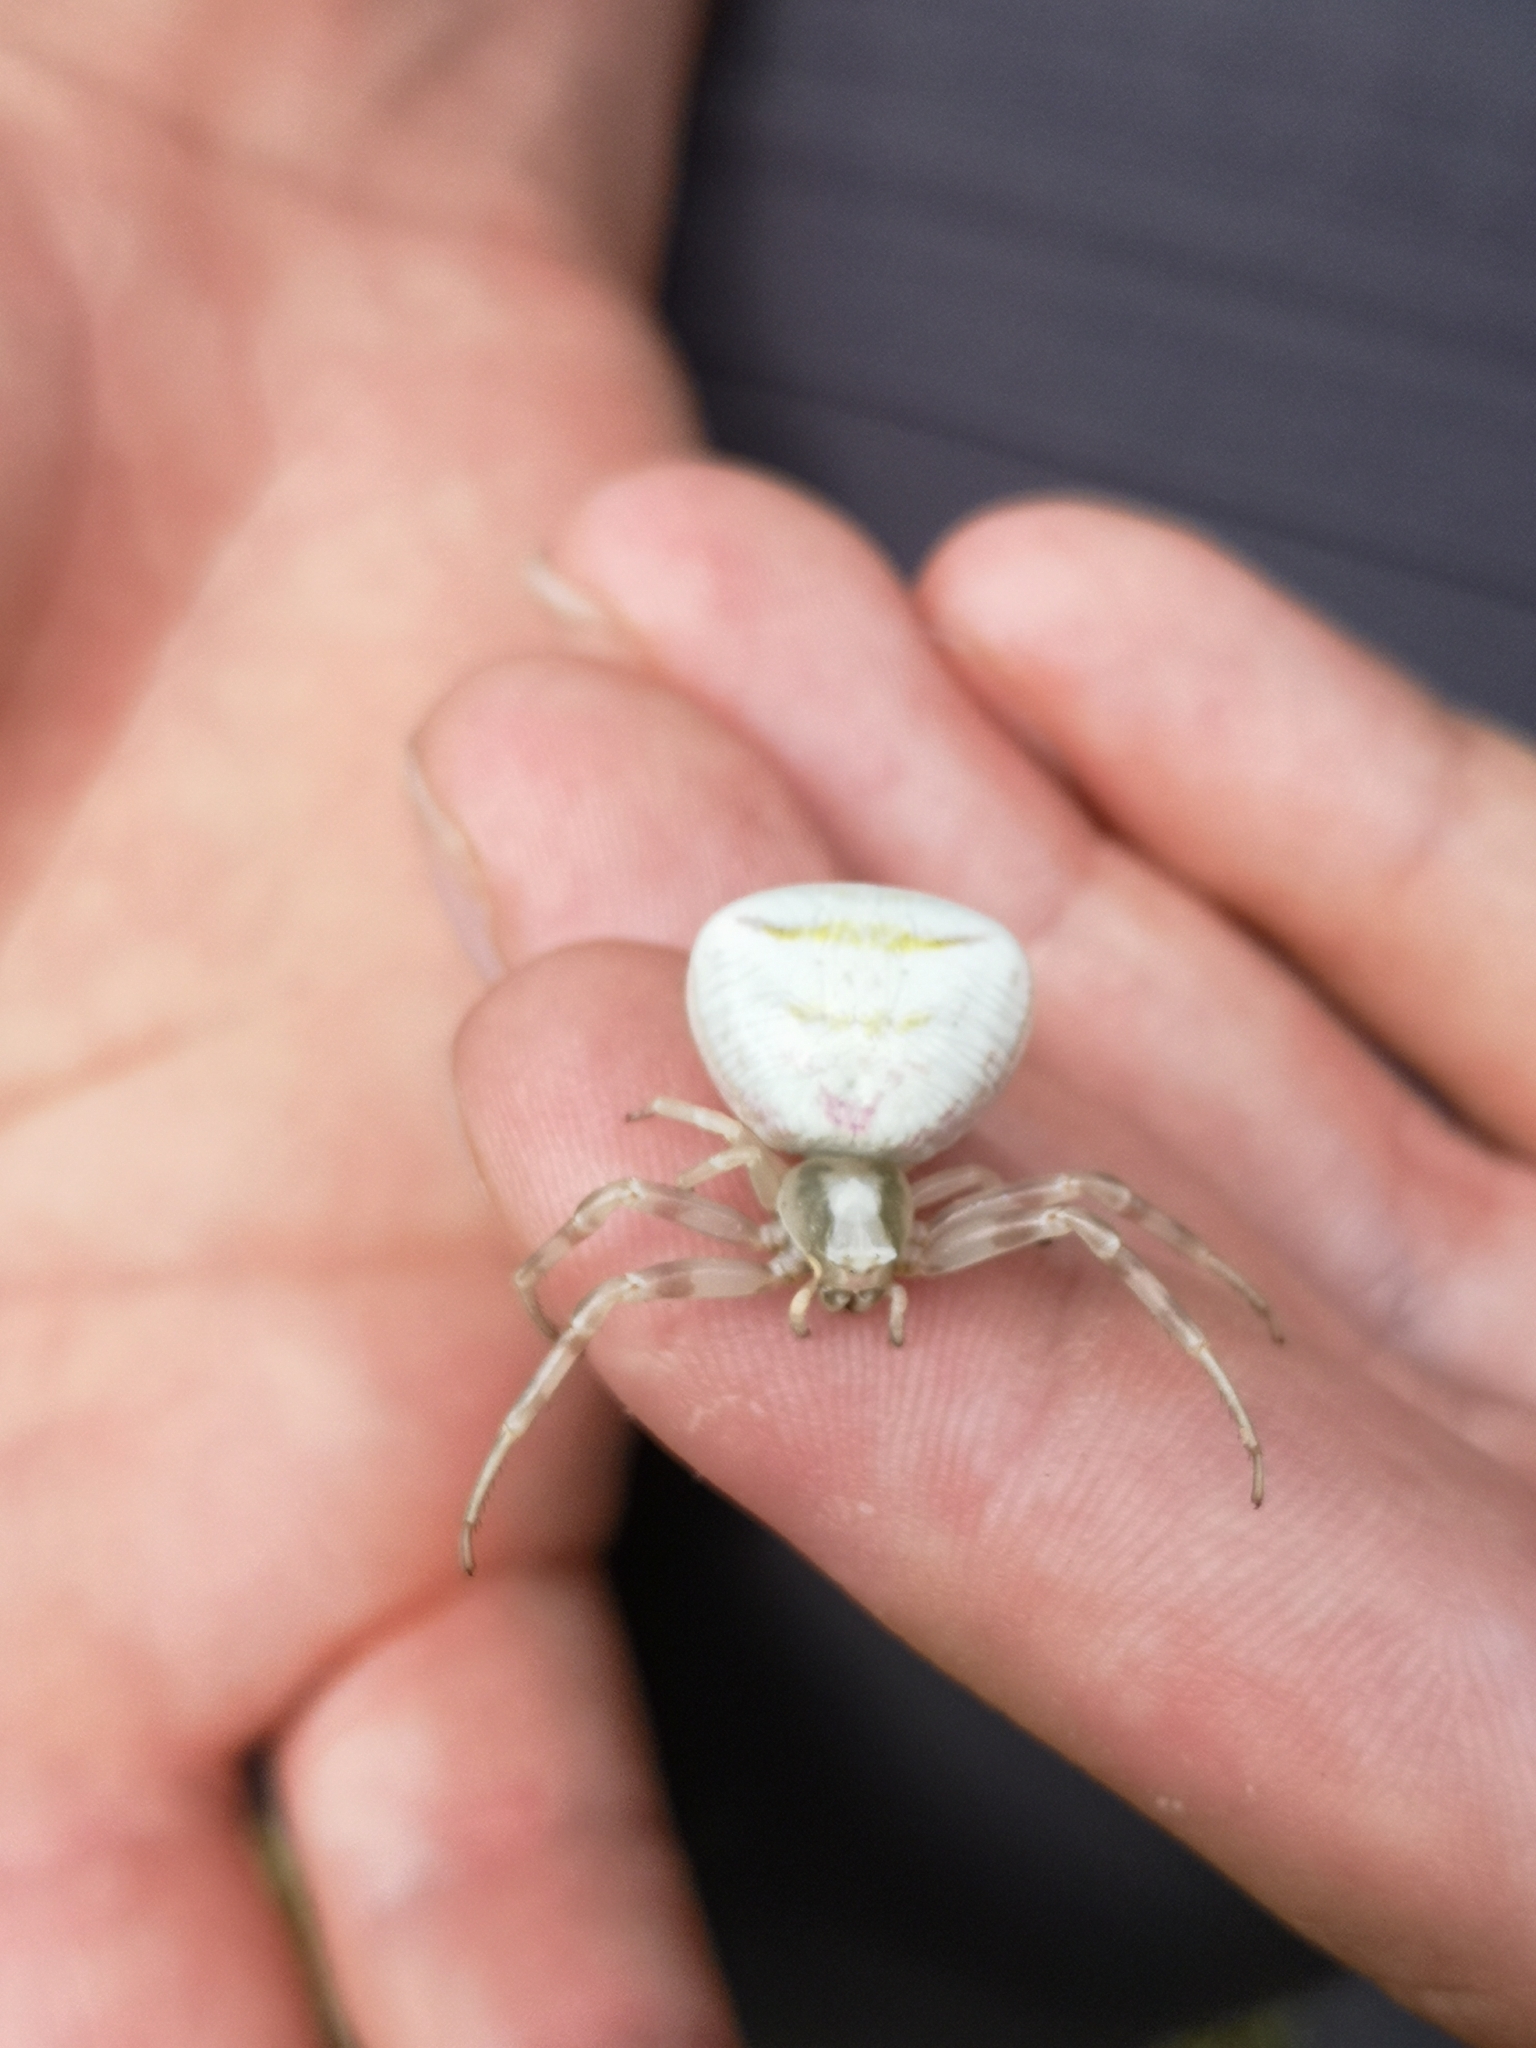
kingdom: Animalia
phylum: Arthropoda
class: Arachnida
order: Araneae
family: Thomisidae
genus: Thomisus
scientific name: Thomisus onustus
